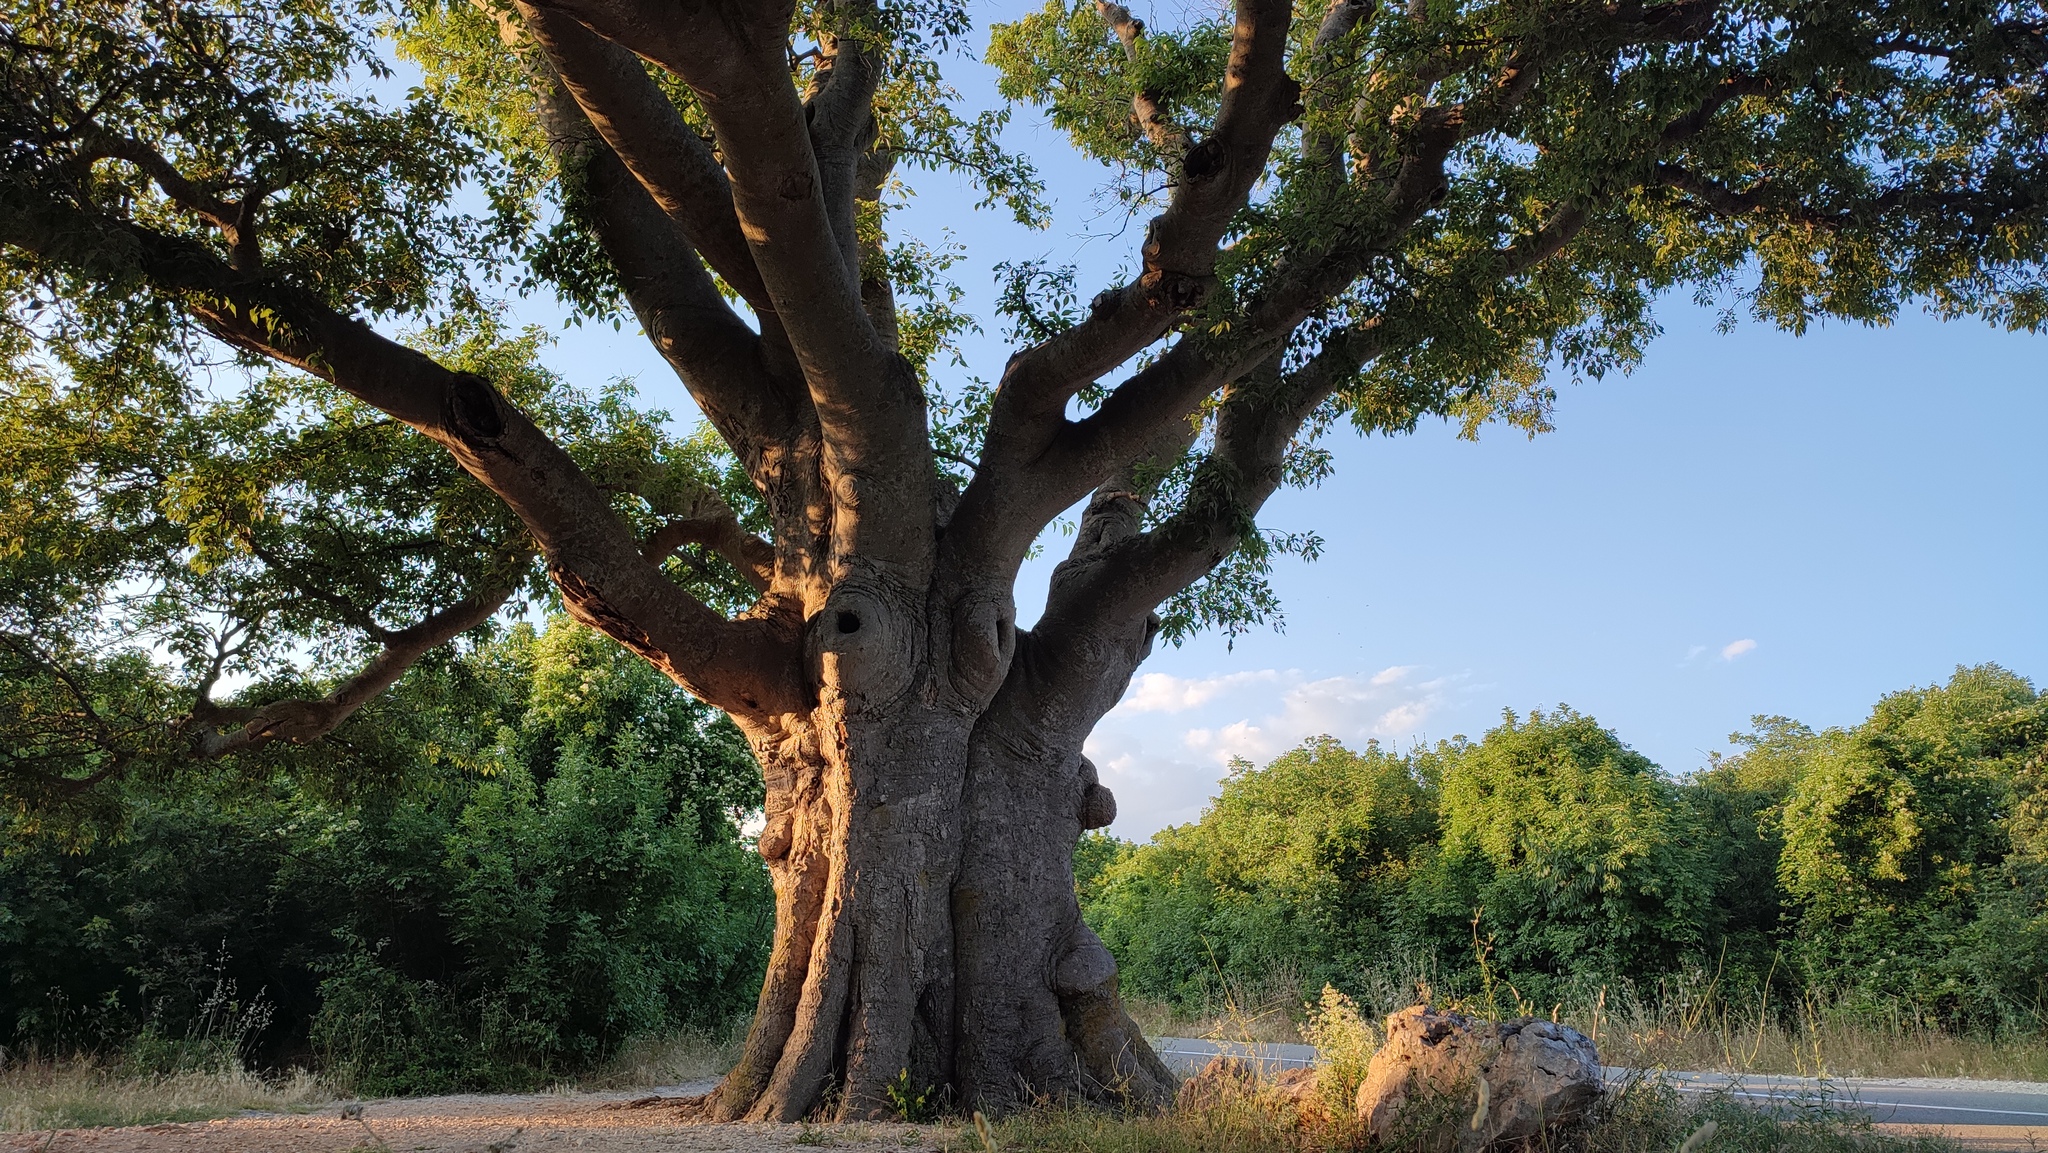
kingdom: Plantae
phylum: Tracheophyta
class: Magnoliopsida
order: Rosales
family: Cannabaceae
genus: Celtis
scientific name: Celtis australis
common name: European hackberry
